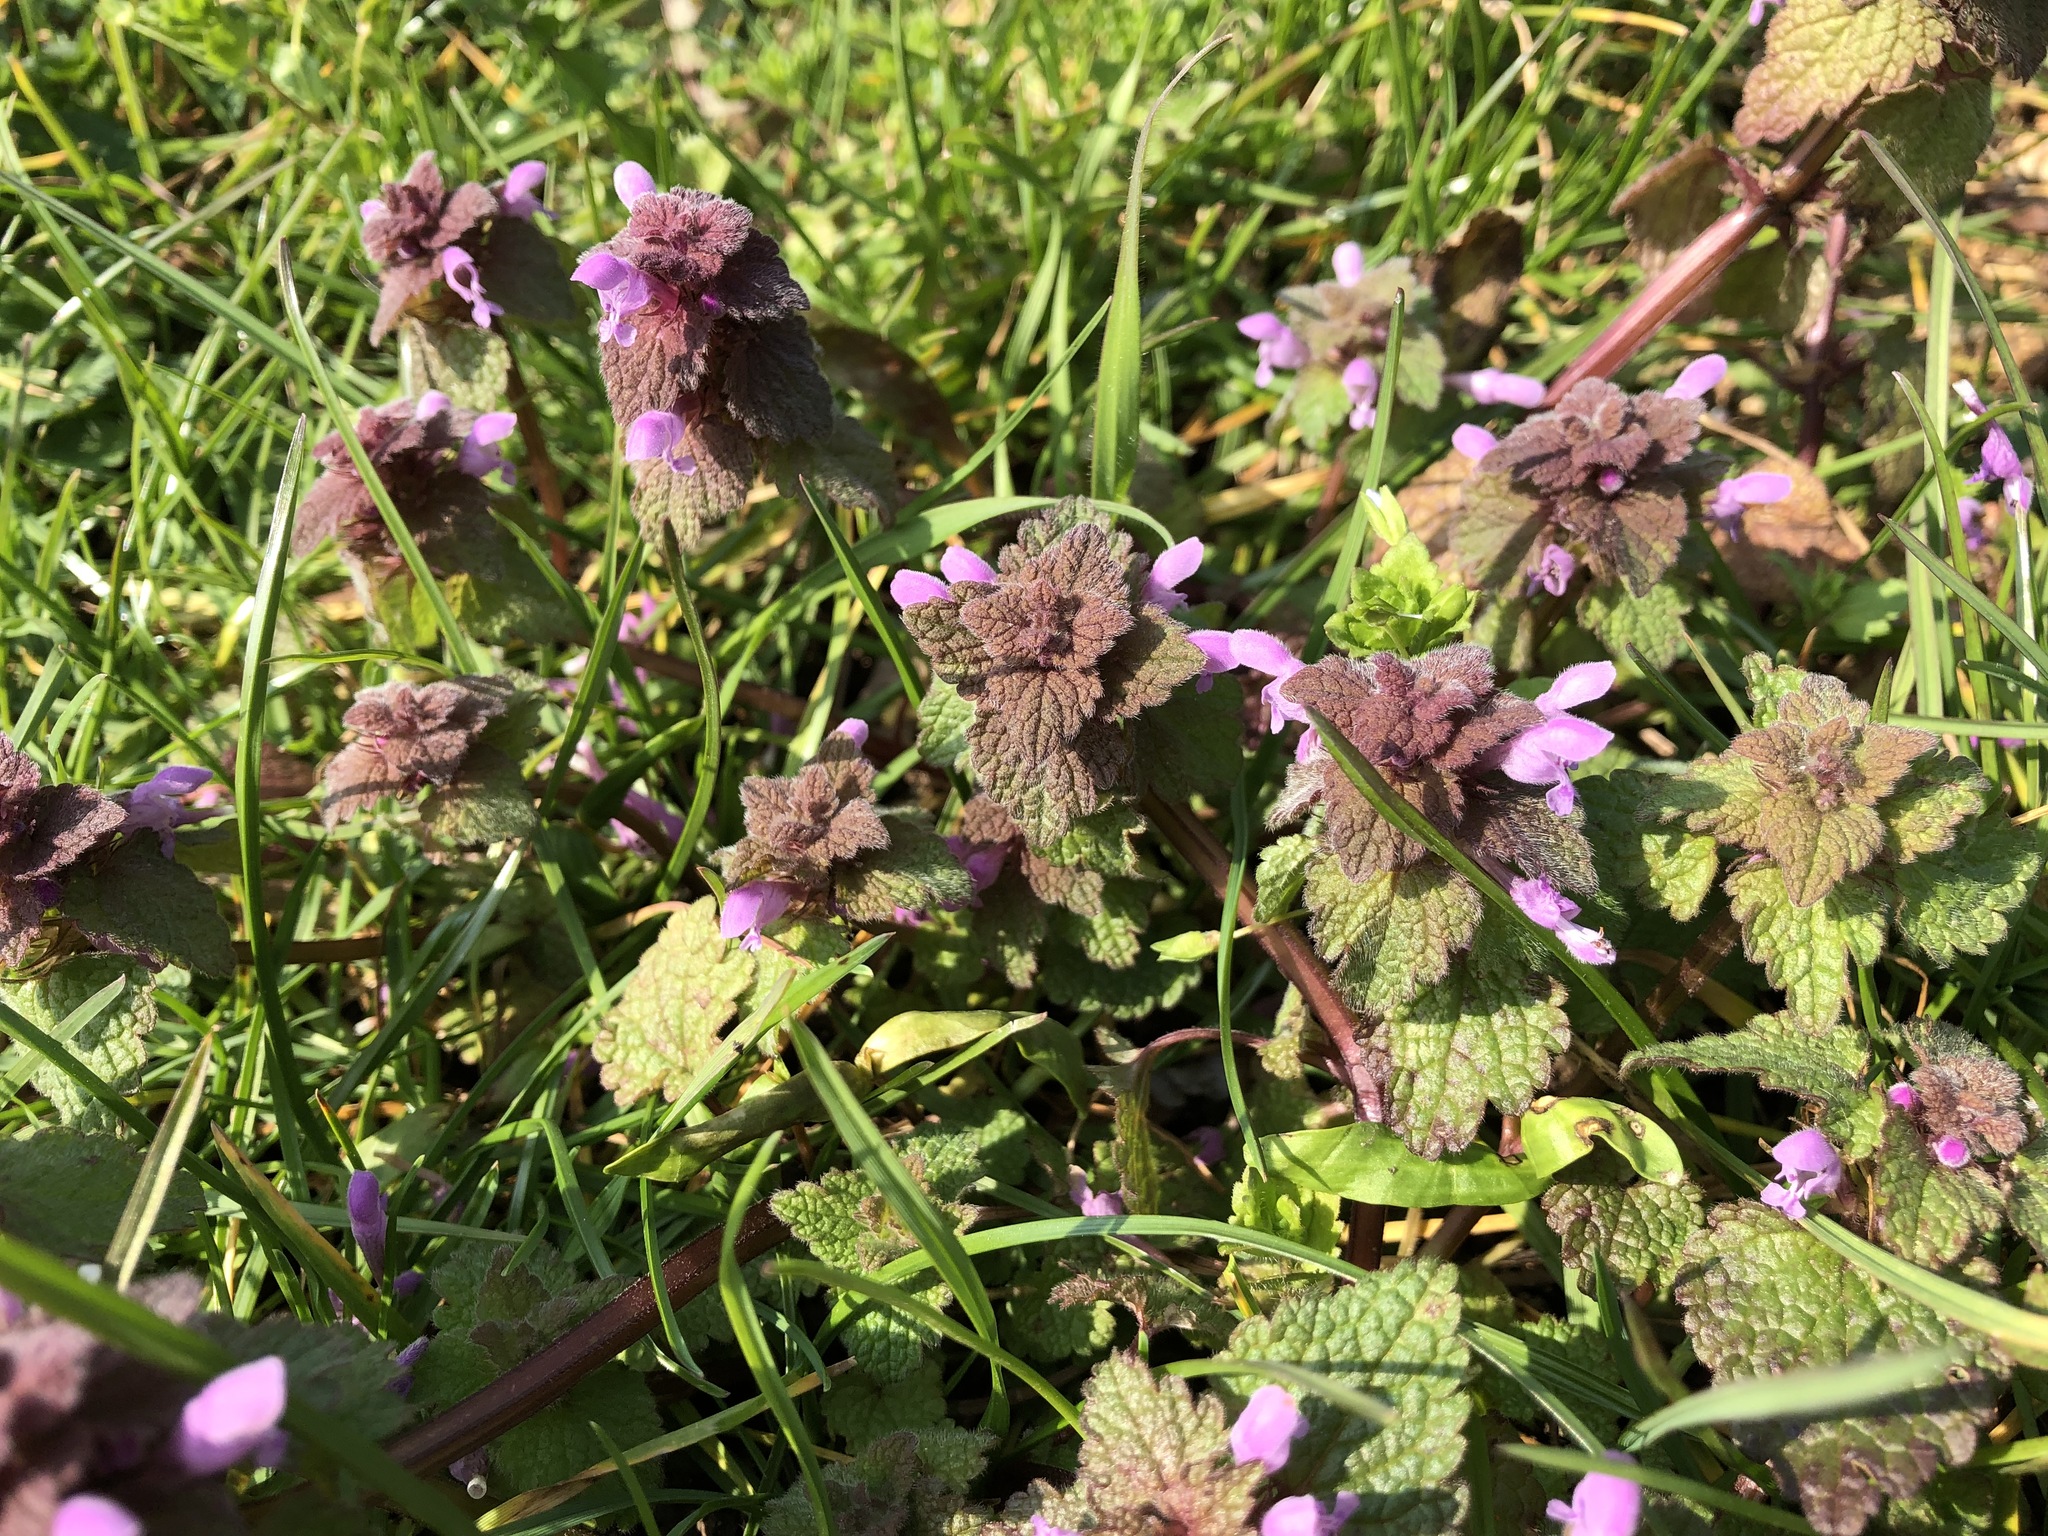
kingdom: Plantae
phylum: Tracheophyta
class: Magnoliopsida
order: Lamiales
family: Lamiaceae
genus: Lamium
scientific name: Lamium purpureum
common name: Red dead-nettle
